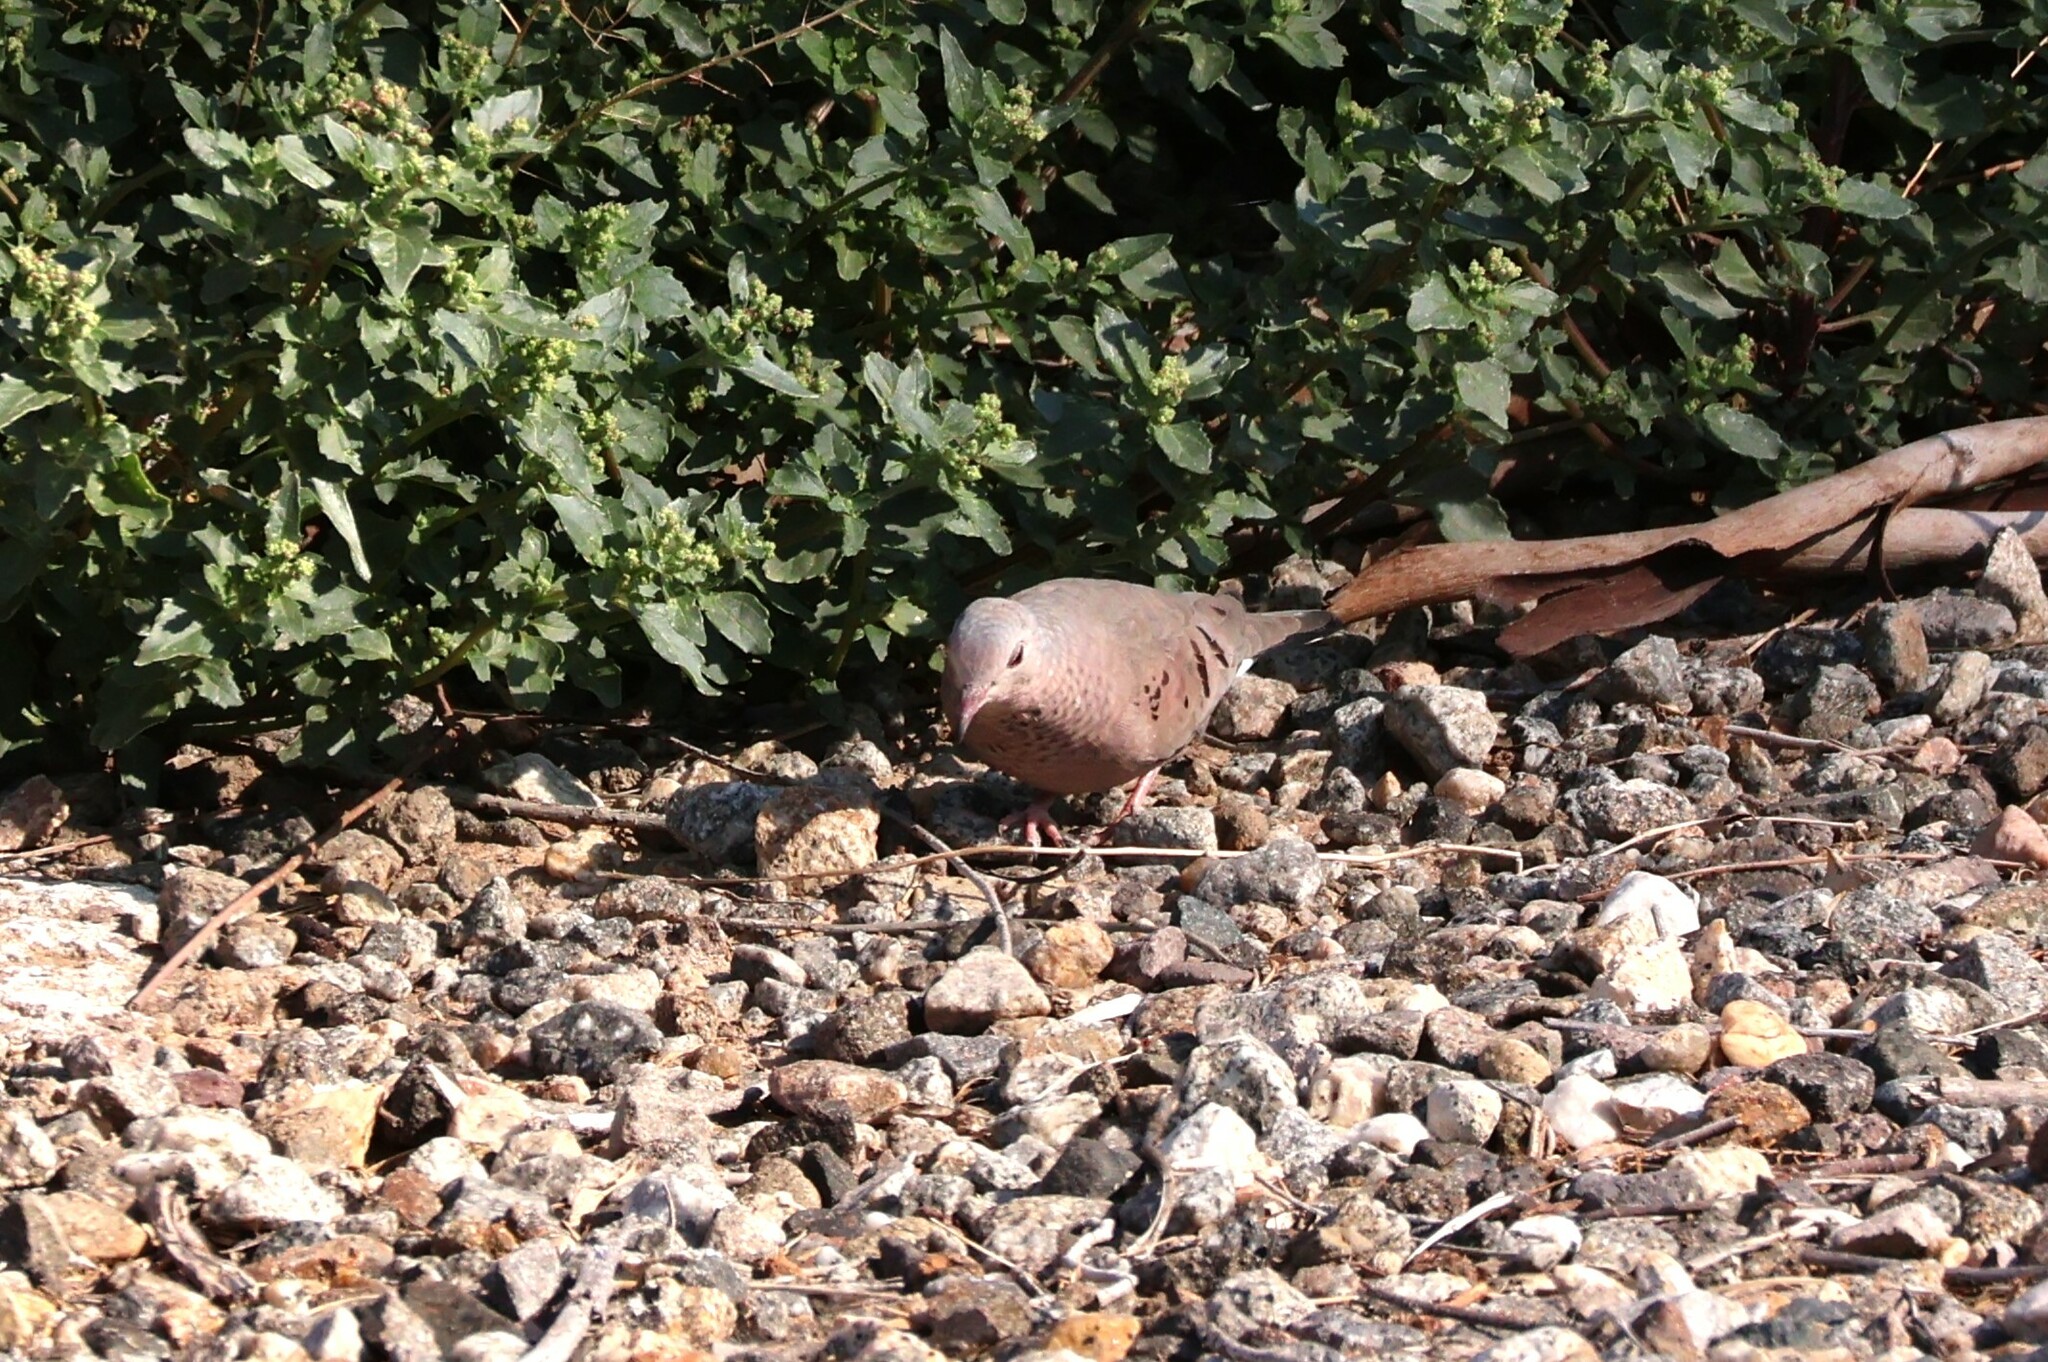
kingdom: Animalia
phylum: Chordata
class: Aves
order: Columbiformes
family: Columbidae
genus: Columbina
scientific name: Columbina passerina
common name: Common ground-dove
